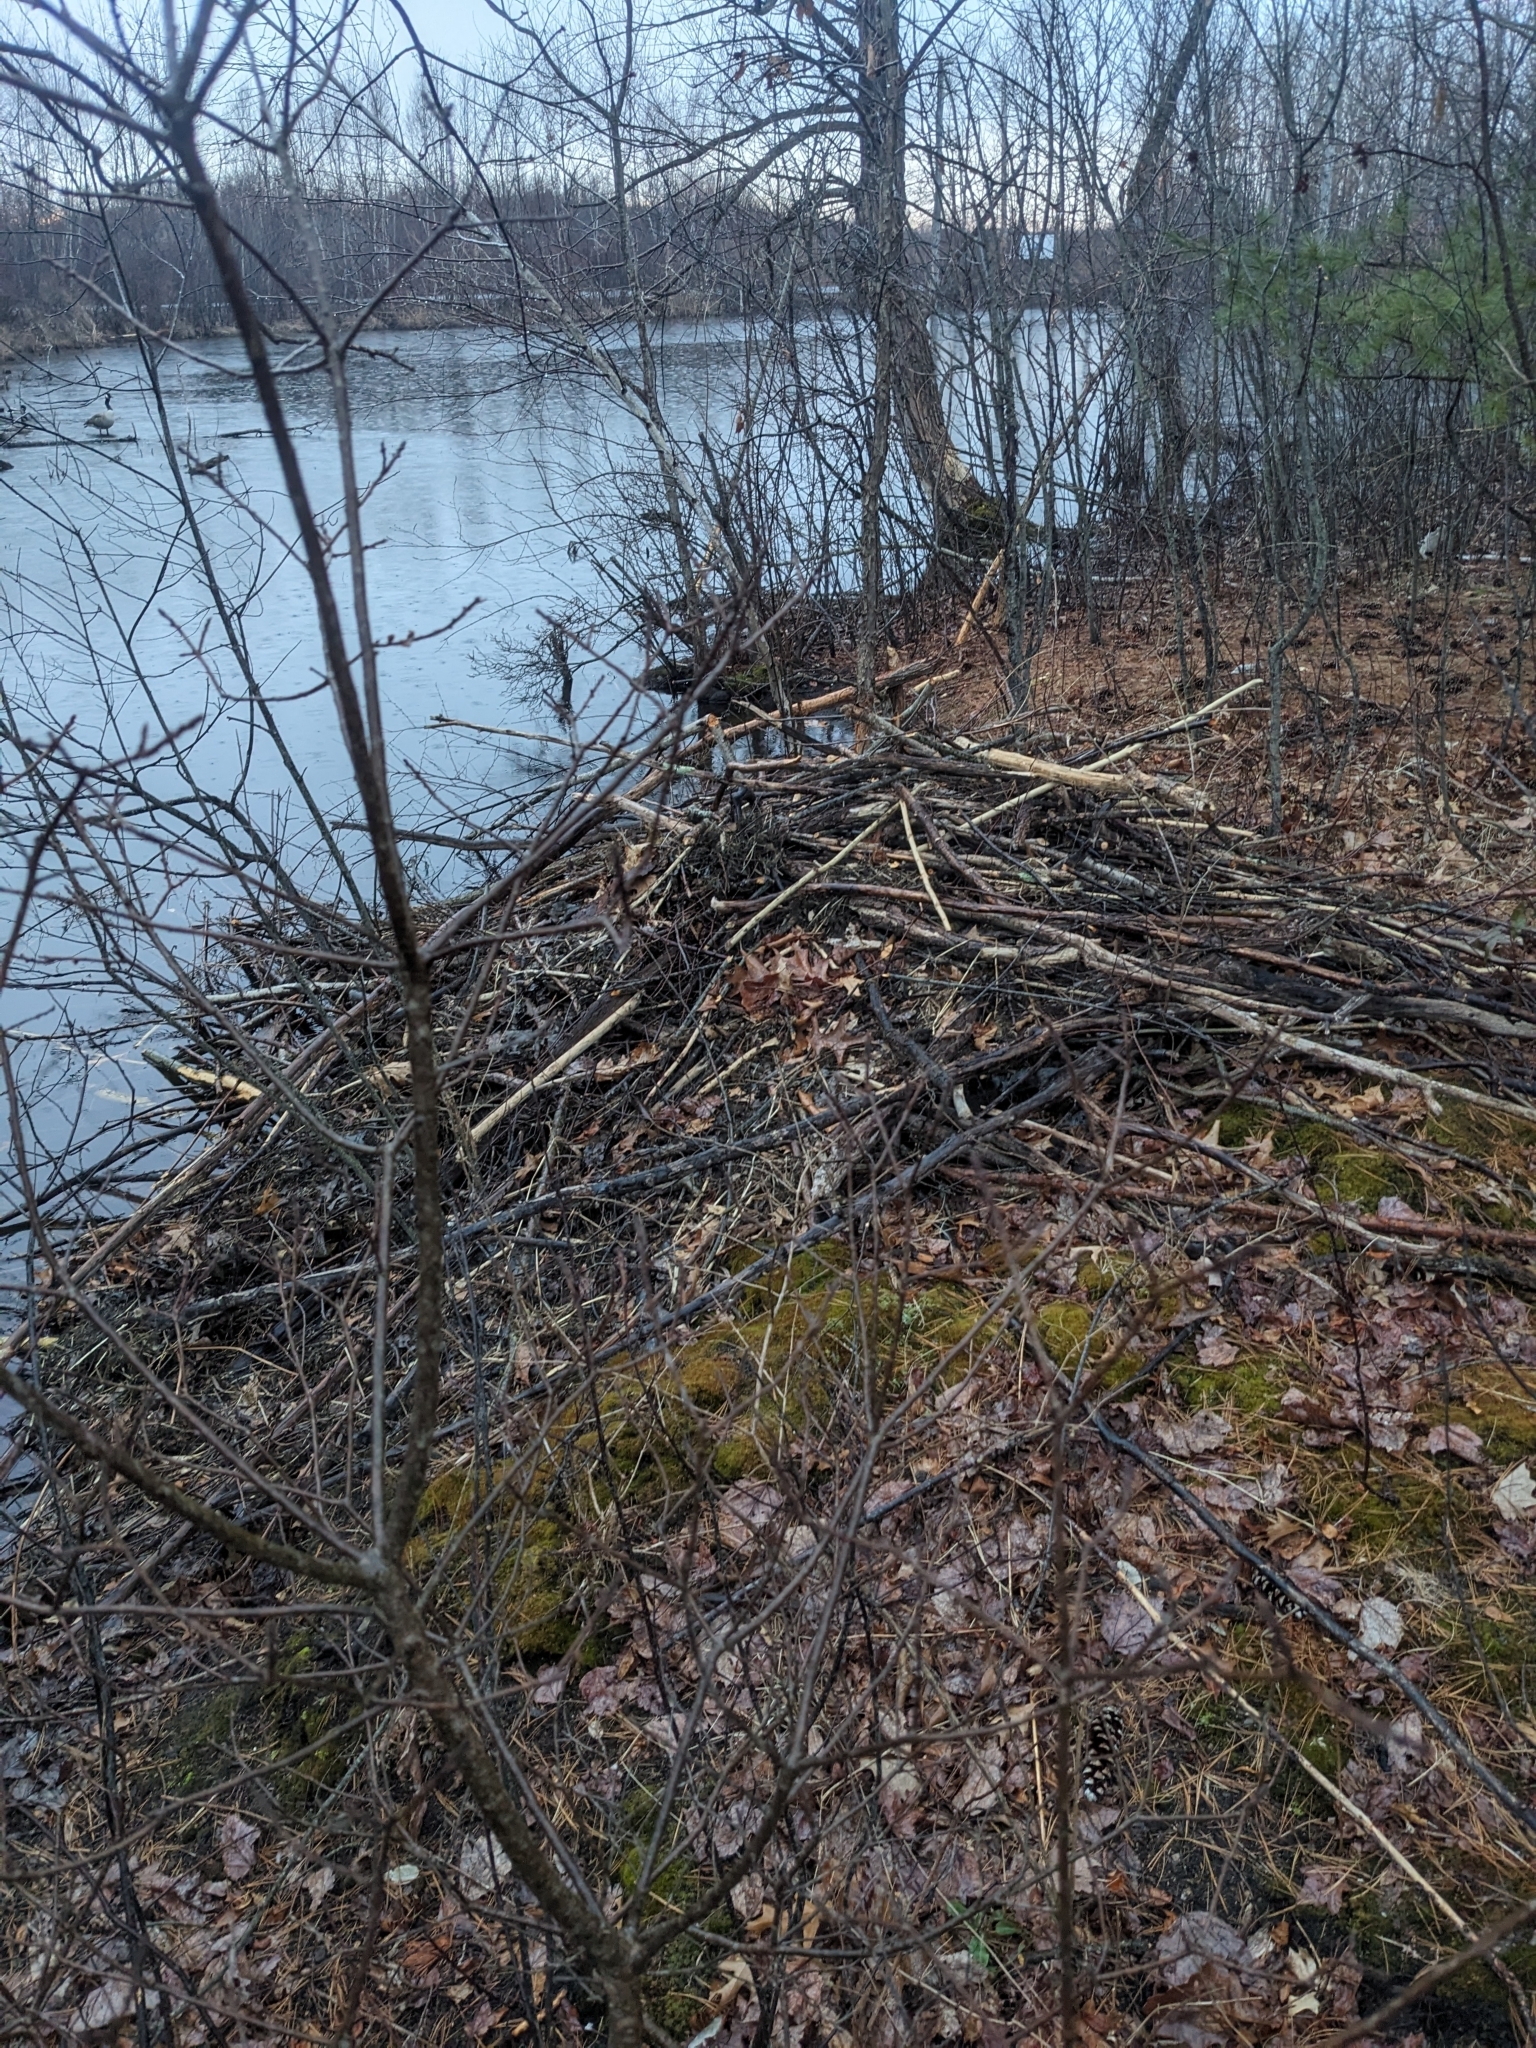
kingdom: Animalia
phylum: Chordata
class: Mammalia
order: Rodentia
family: Castoridae
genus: Castor
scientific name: Castor canadensis
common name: American beaver
